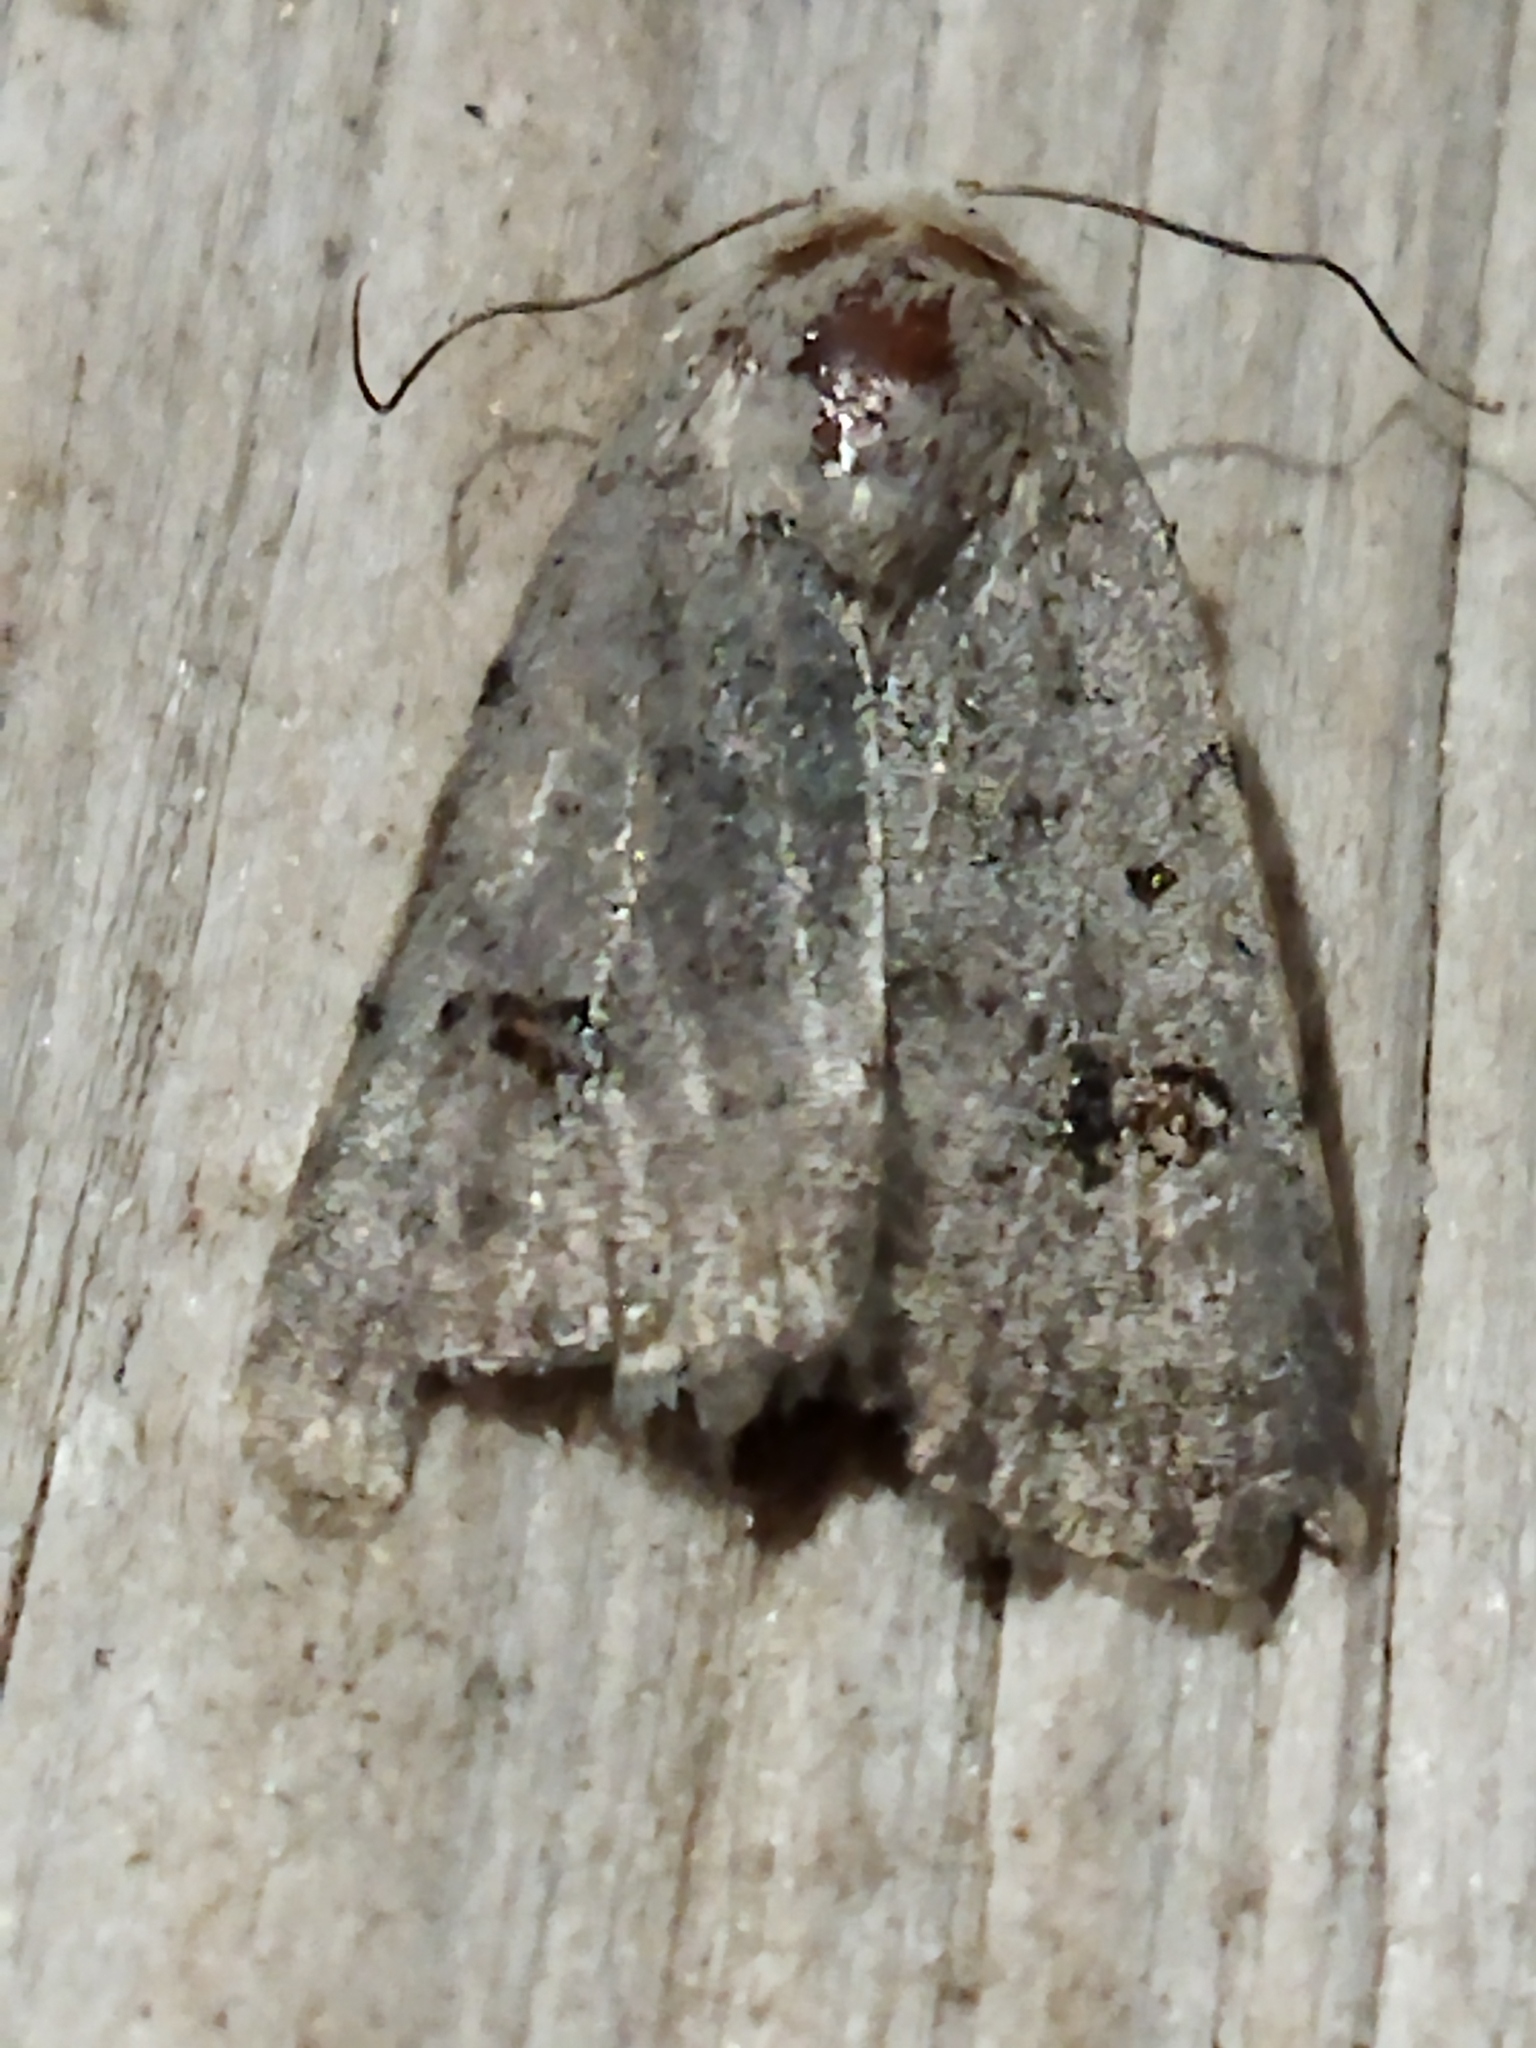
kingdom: Animalia
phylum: Arthropoda
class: Insecta
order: Lepidoptera
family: Noctuidae
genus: Caradrina
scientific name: Caradrina kadenii
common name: Clancy's rustic
